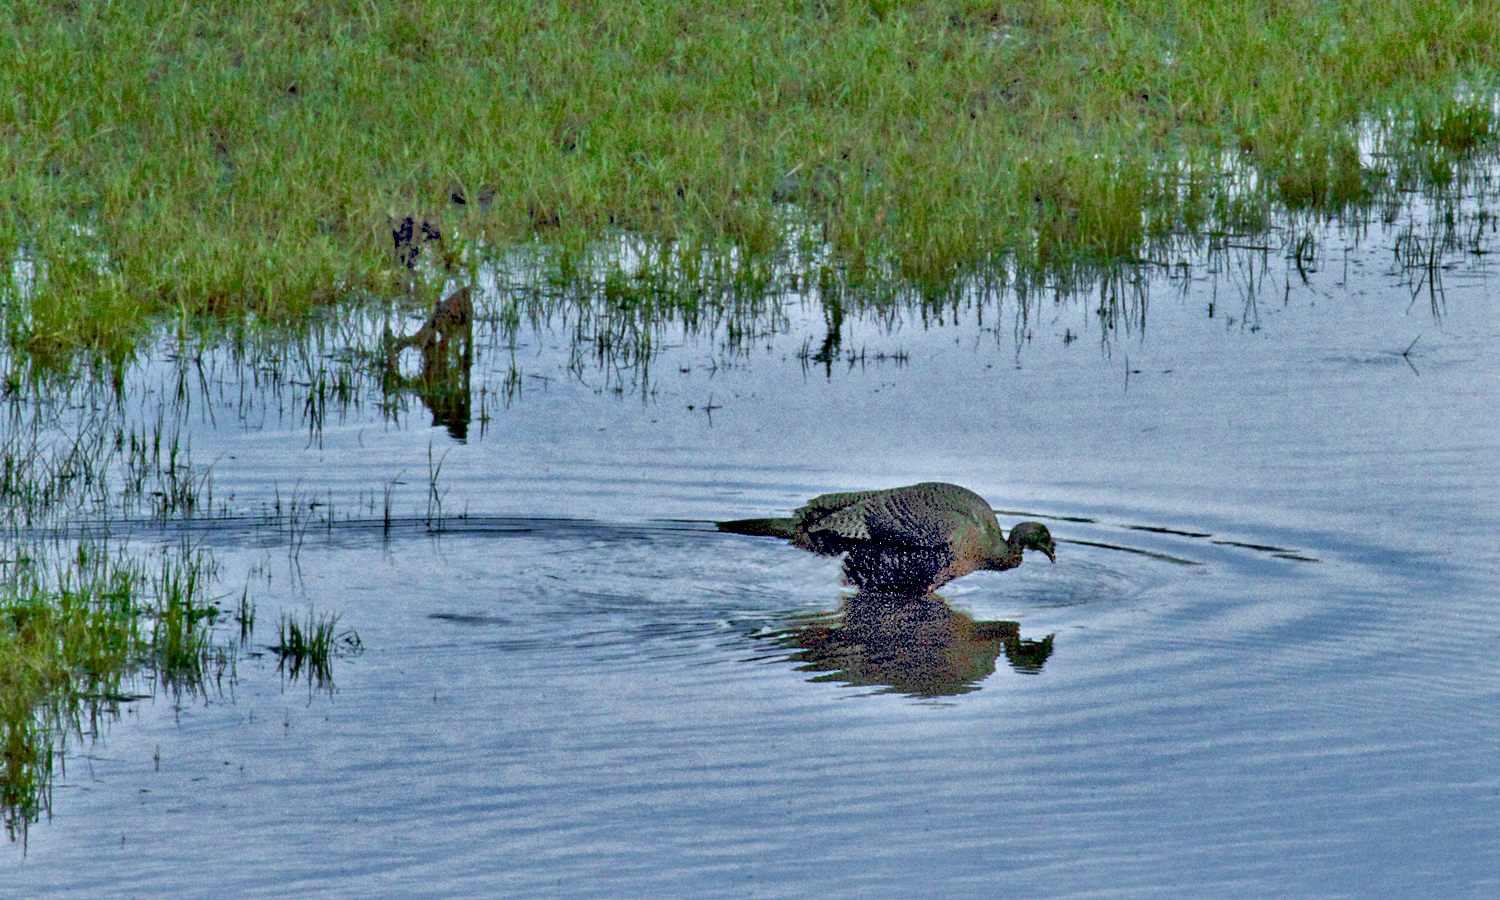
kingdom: Animalia
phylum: Chordata
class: Aves
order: Galliformes
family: Phasianidae
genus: Meleagris
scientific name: Meleagris gallopavo
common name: Wild turkey
